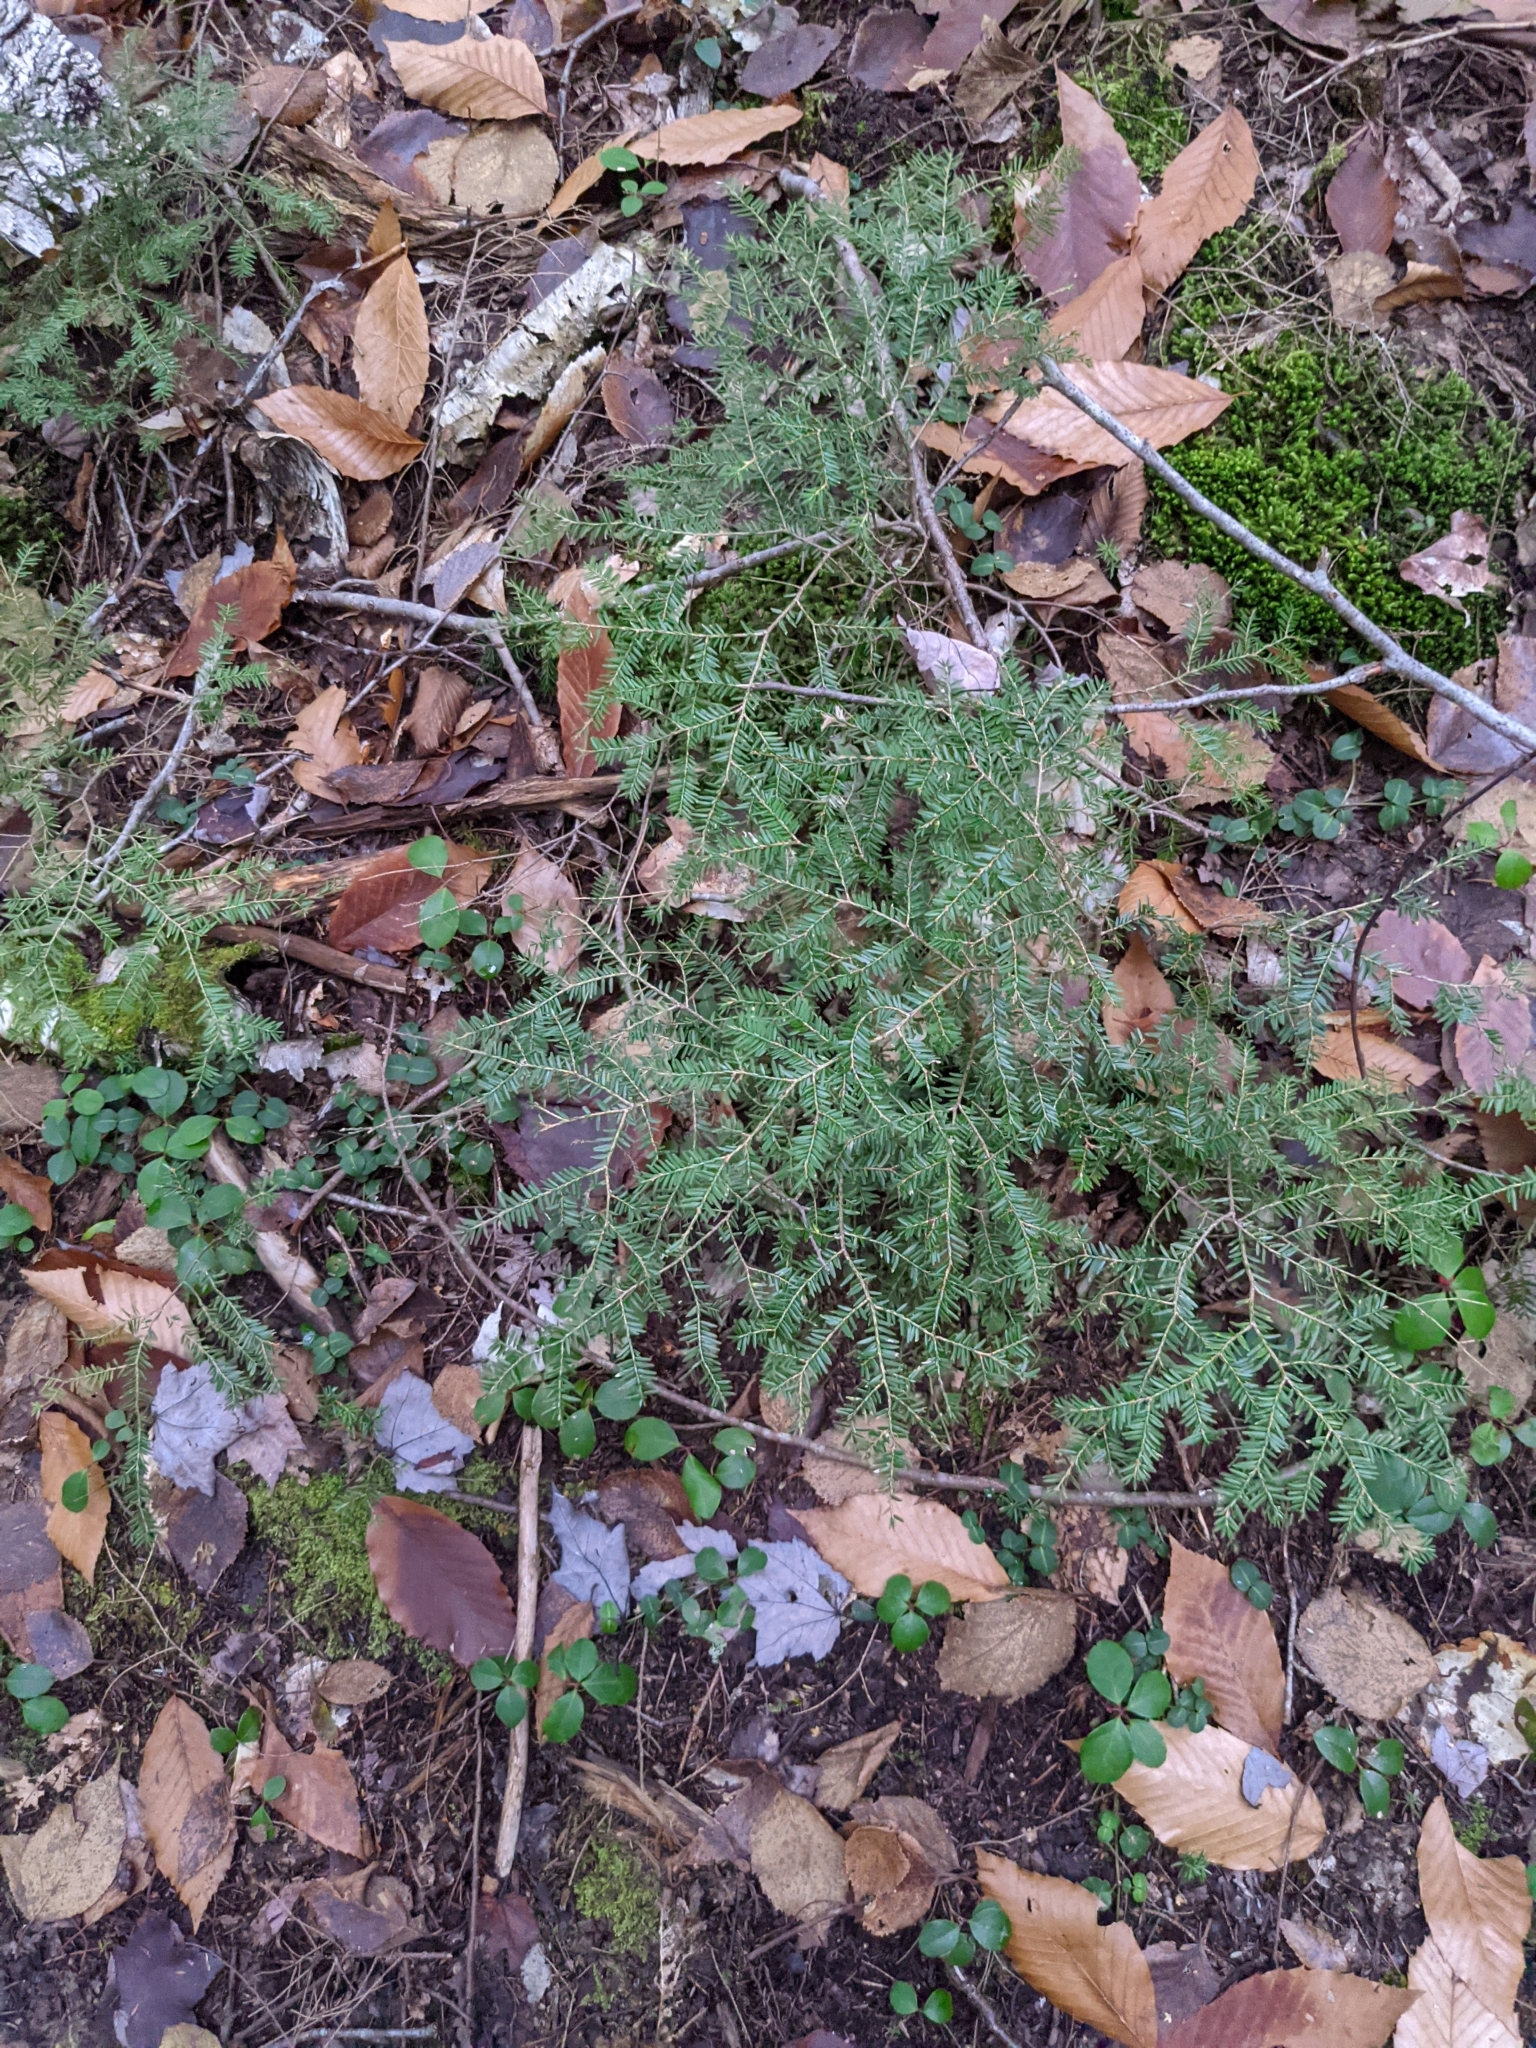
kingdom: Plantae
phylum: Tracheophyta
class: Pinopsida
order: Pinales
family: Pinaceae
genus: Tsuga
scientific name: Tsuga canadensis
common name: Eastern hemlock
